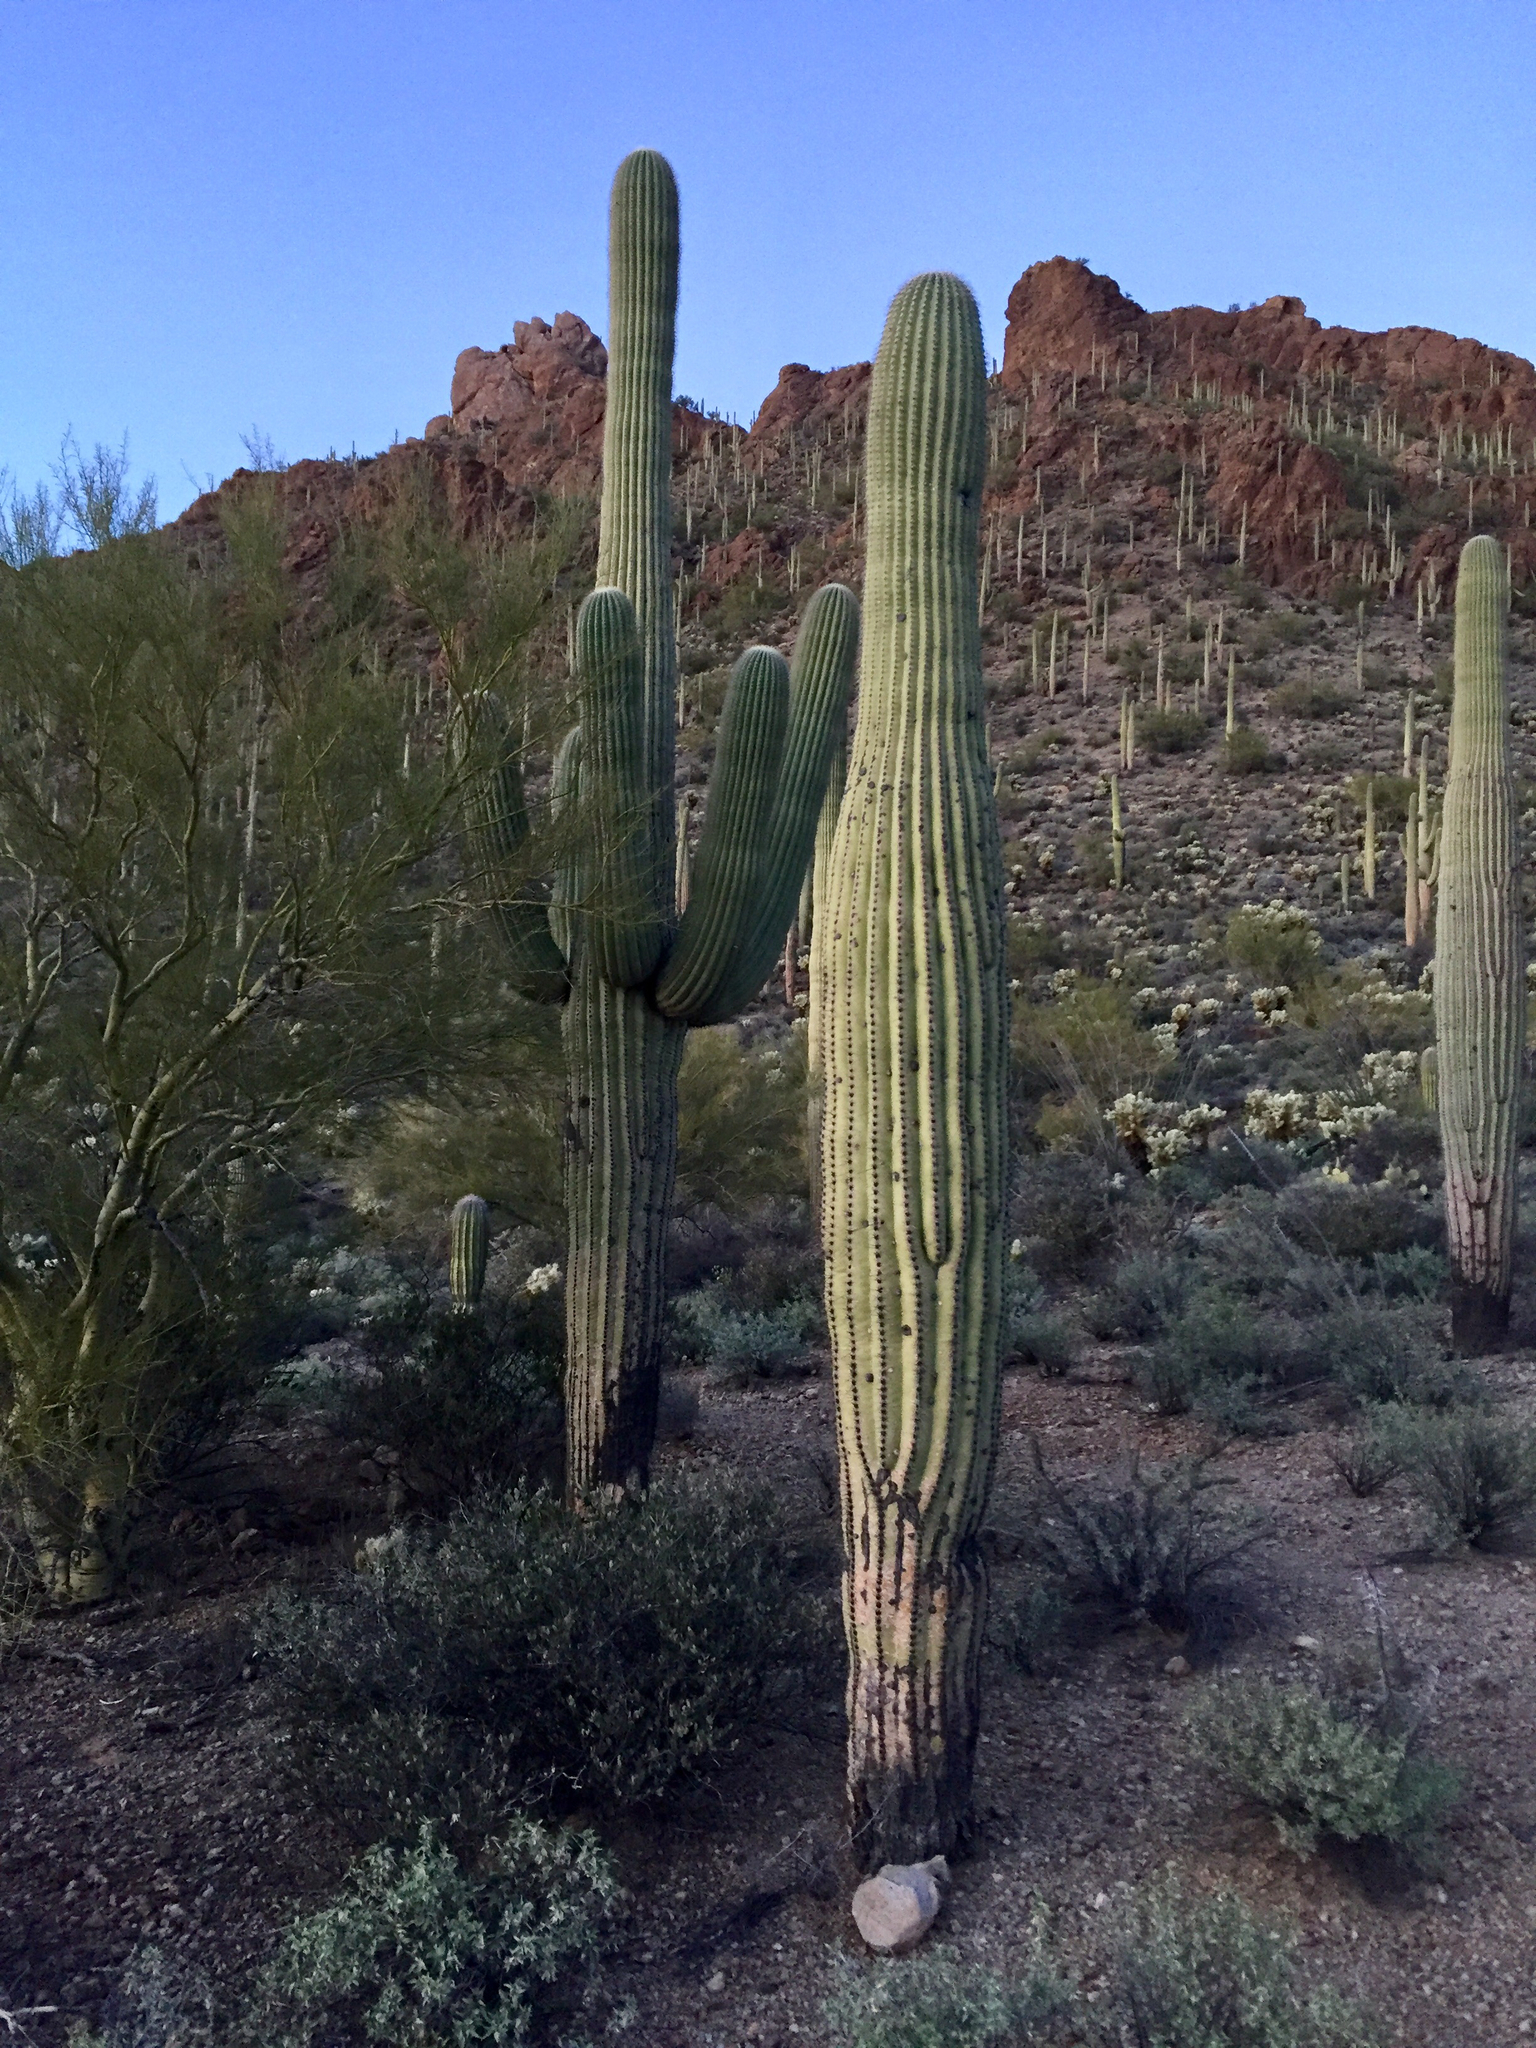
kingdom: Plantae
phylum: Tracheophyta
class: Magnoliopsida
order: Caryophyllales
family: Cactaceae
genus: Carnegiea
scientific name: Carnegiea gigantea
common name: Saguaro
